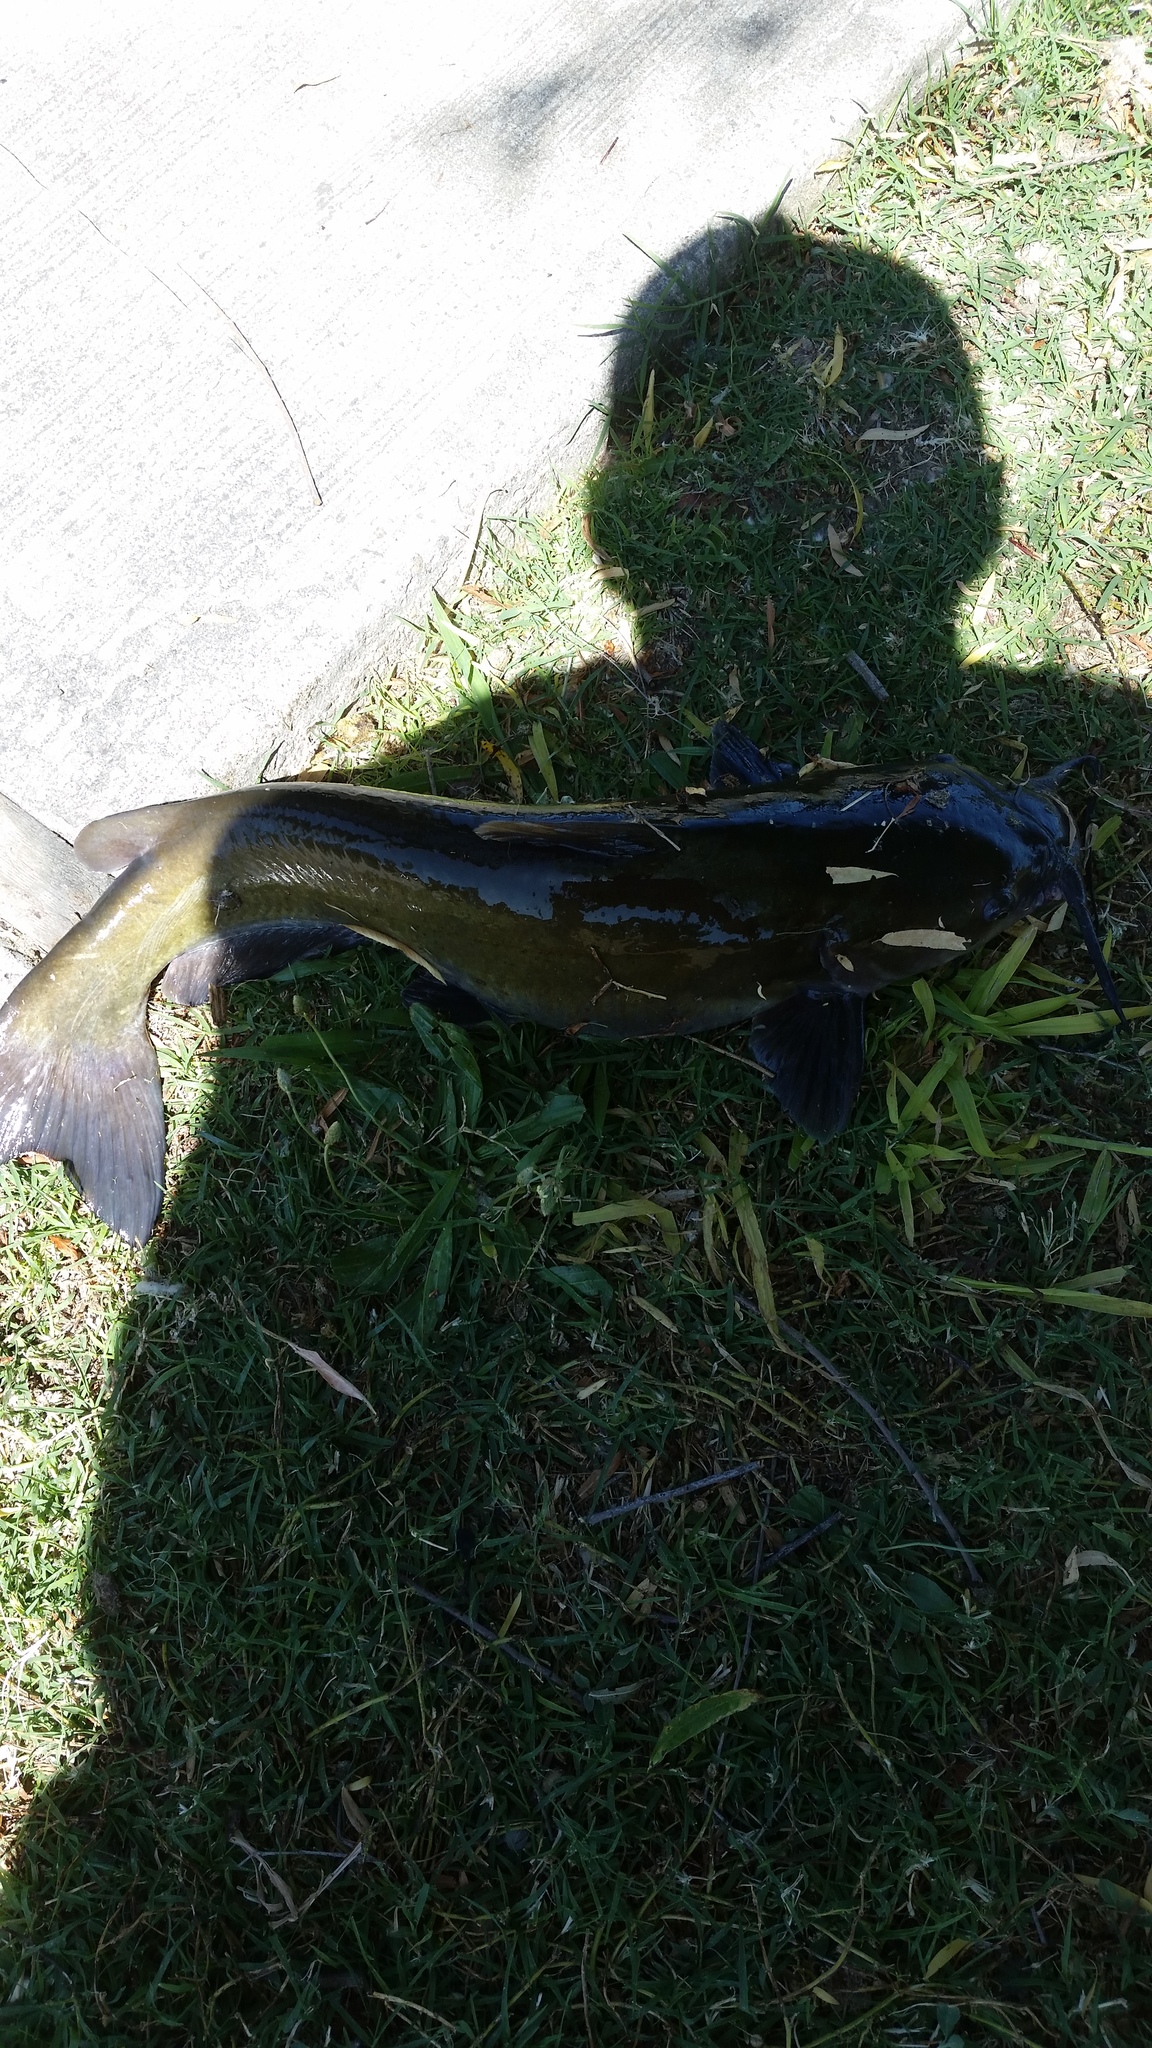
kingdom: Animalia
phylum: Chordata
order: Siluriformes
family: Ictaluridae
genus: Ictalurus
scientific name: Ictalurus punctatus
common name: Channel catfish
